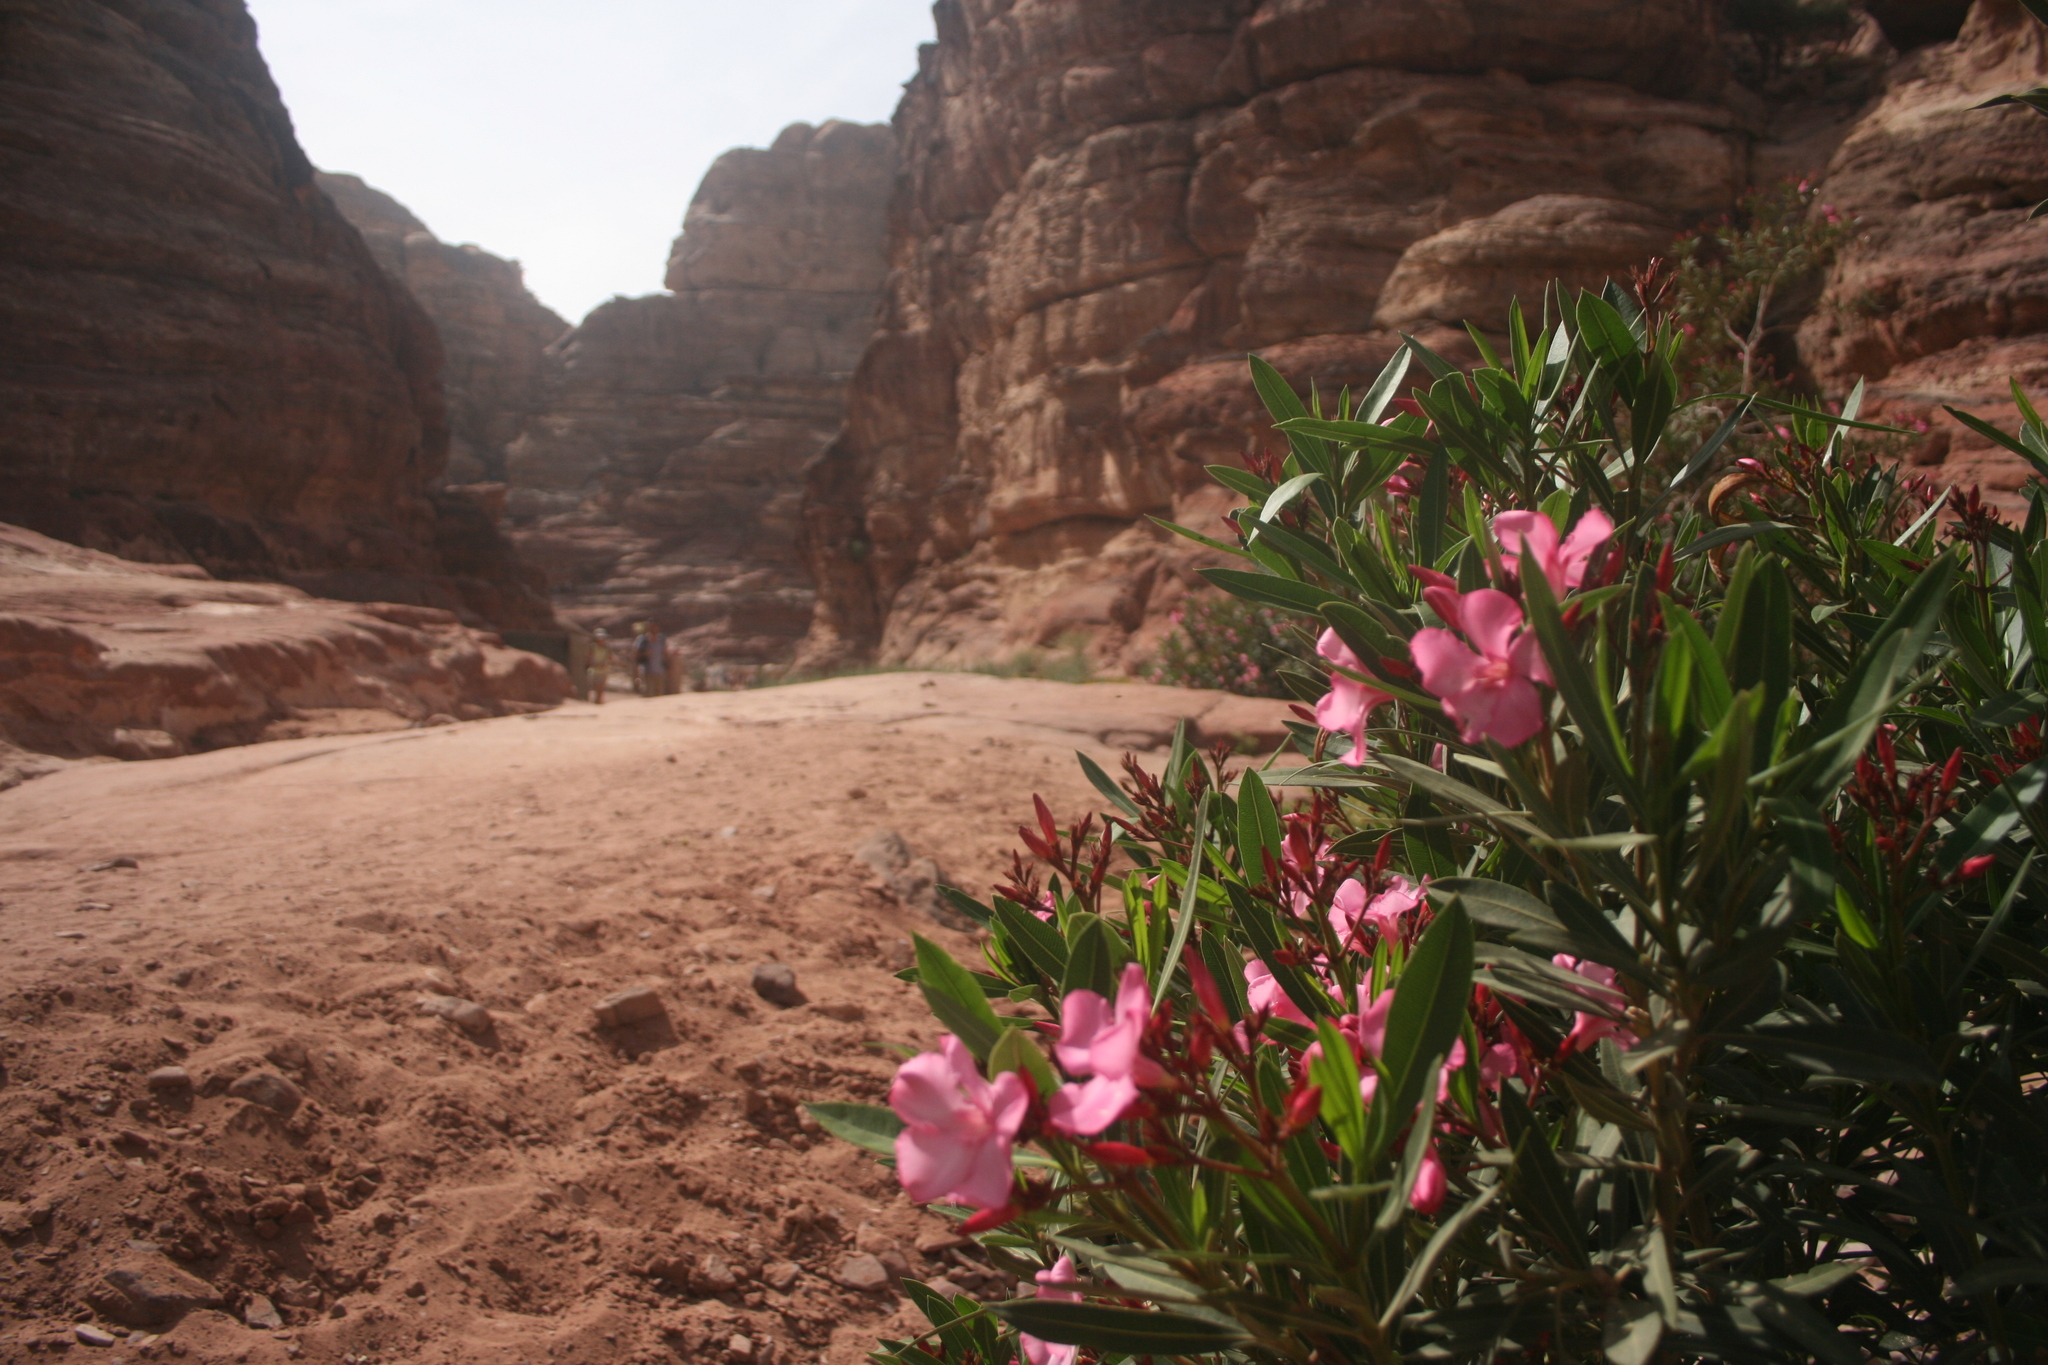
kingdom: Plantae
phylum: Tracheophyta
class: Magnoliopsida
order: Gentianales
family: Apocynaceae
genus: Nerium
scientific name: Nerium oleander
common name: Oleander
